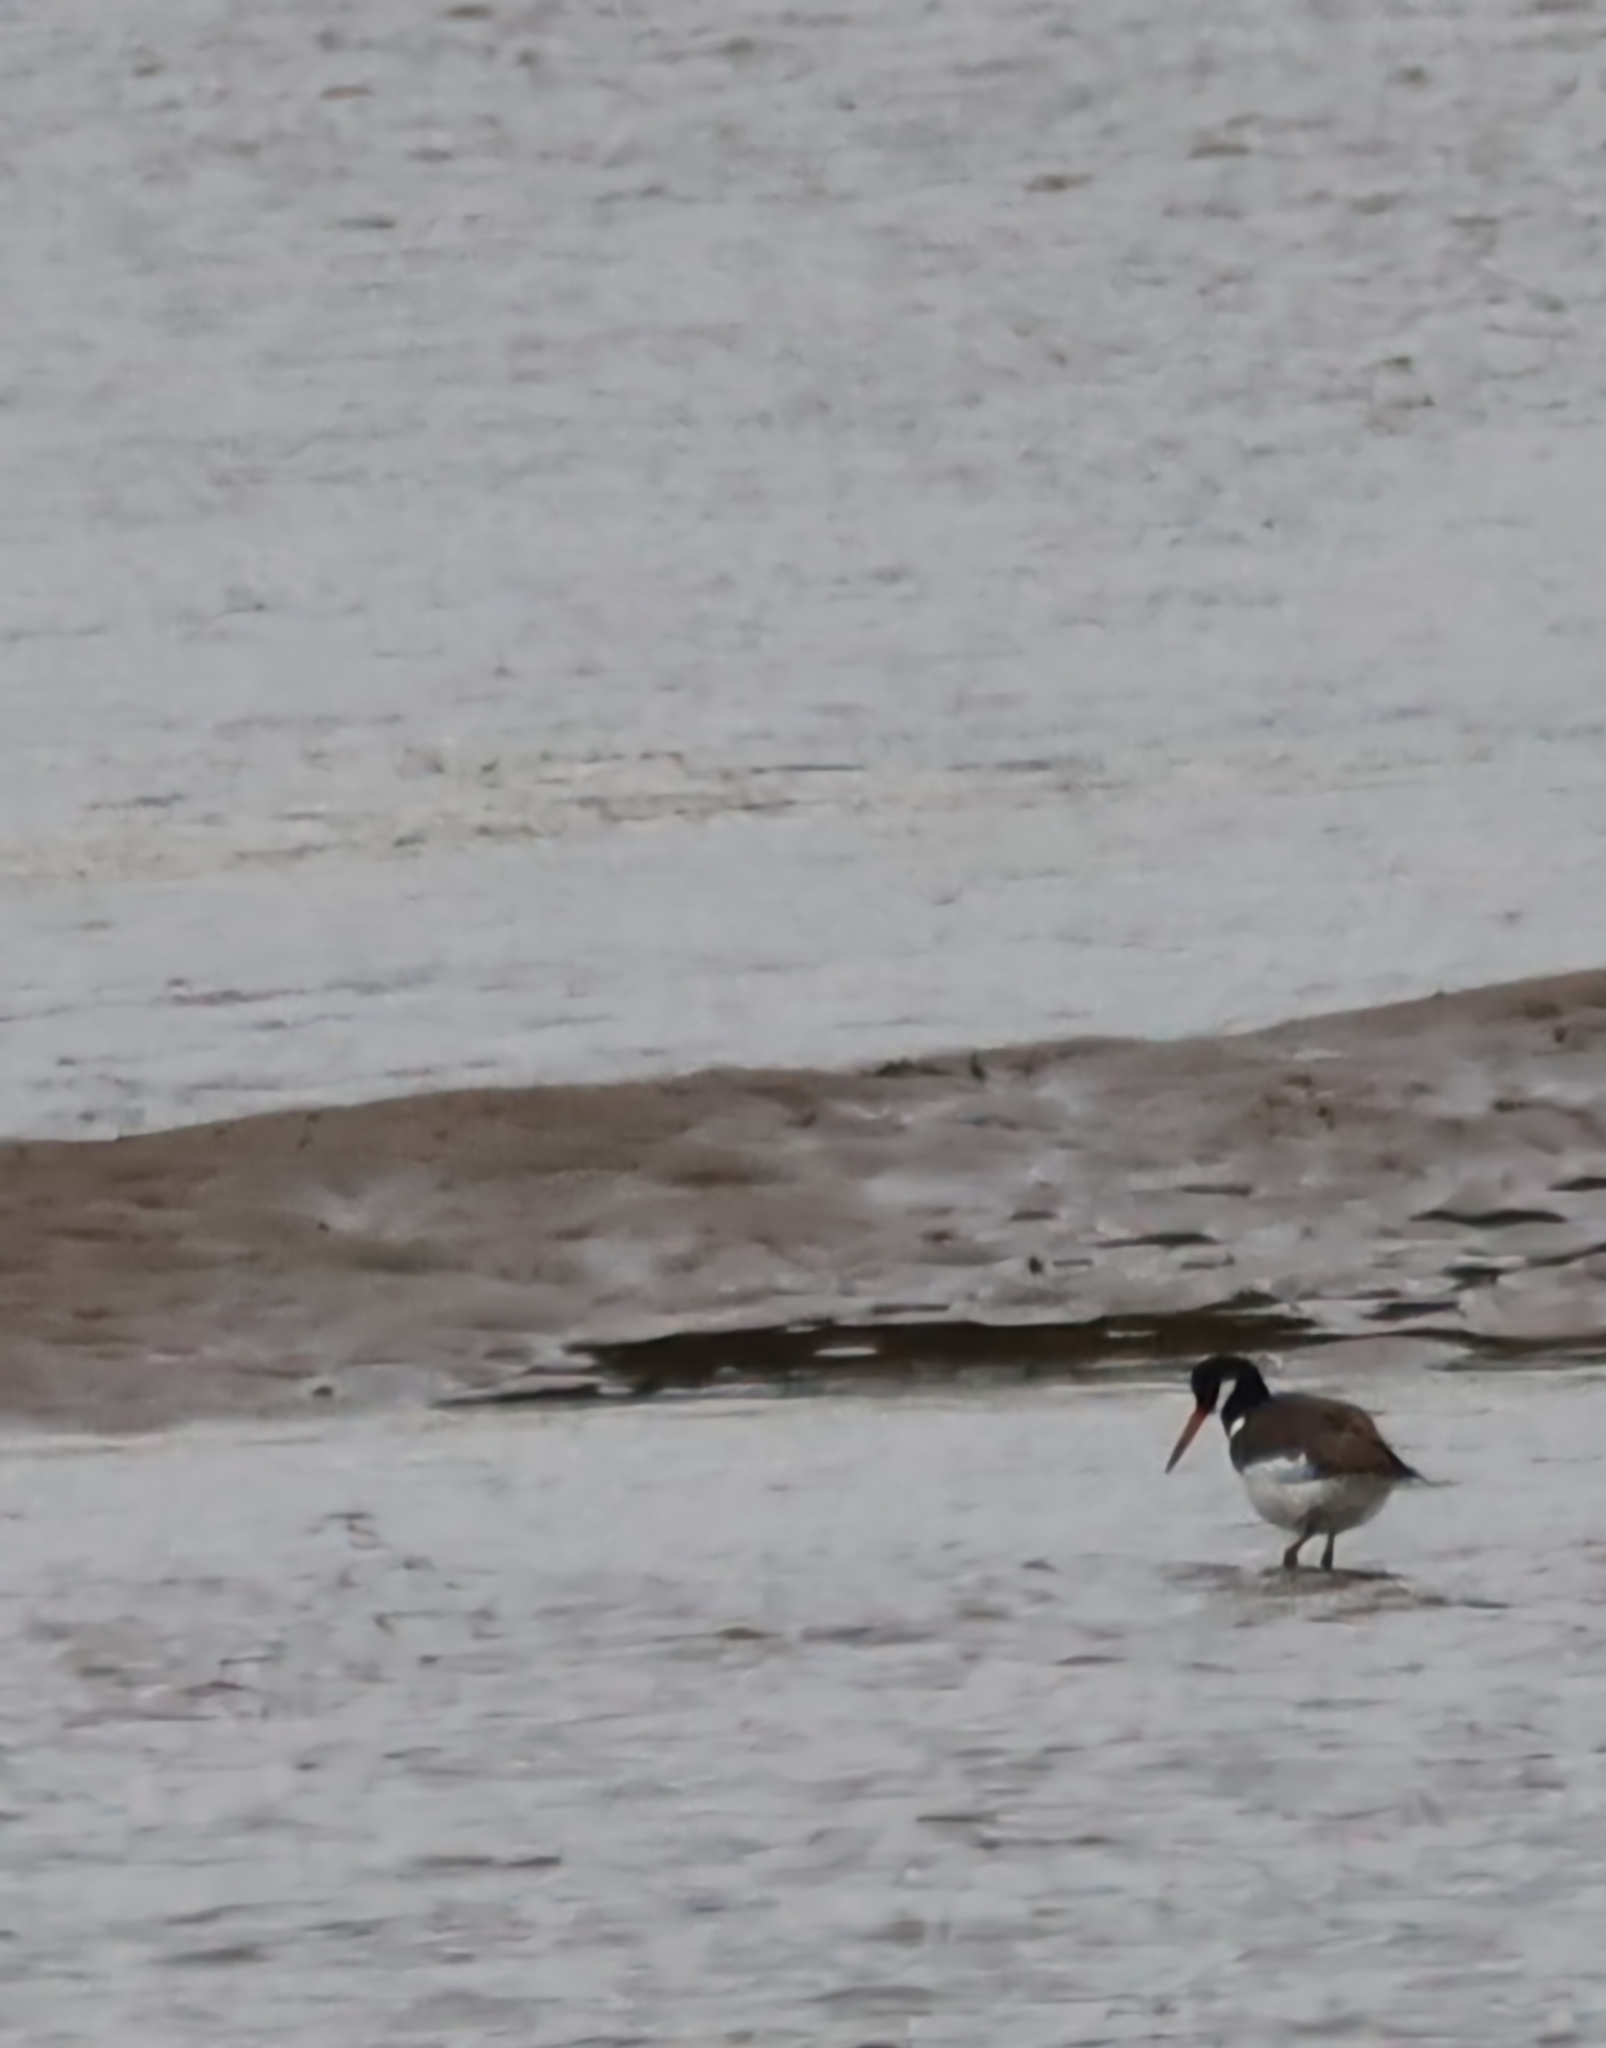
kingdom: Animalia
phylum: Chordata
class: Aves
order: Charadriiformes
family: Haematopodidae
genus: Haematopus
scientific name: Haematopus ostralegus
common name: Eurasian oystercatcher
